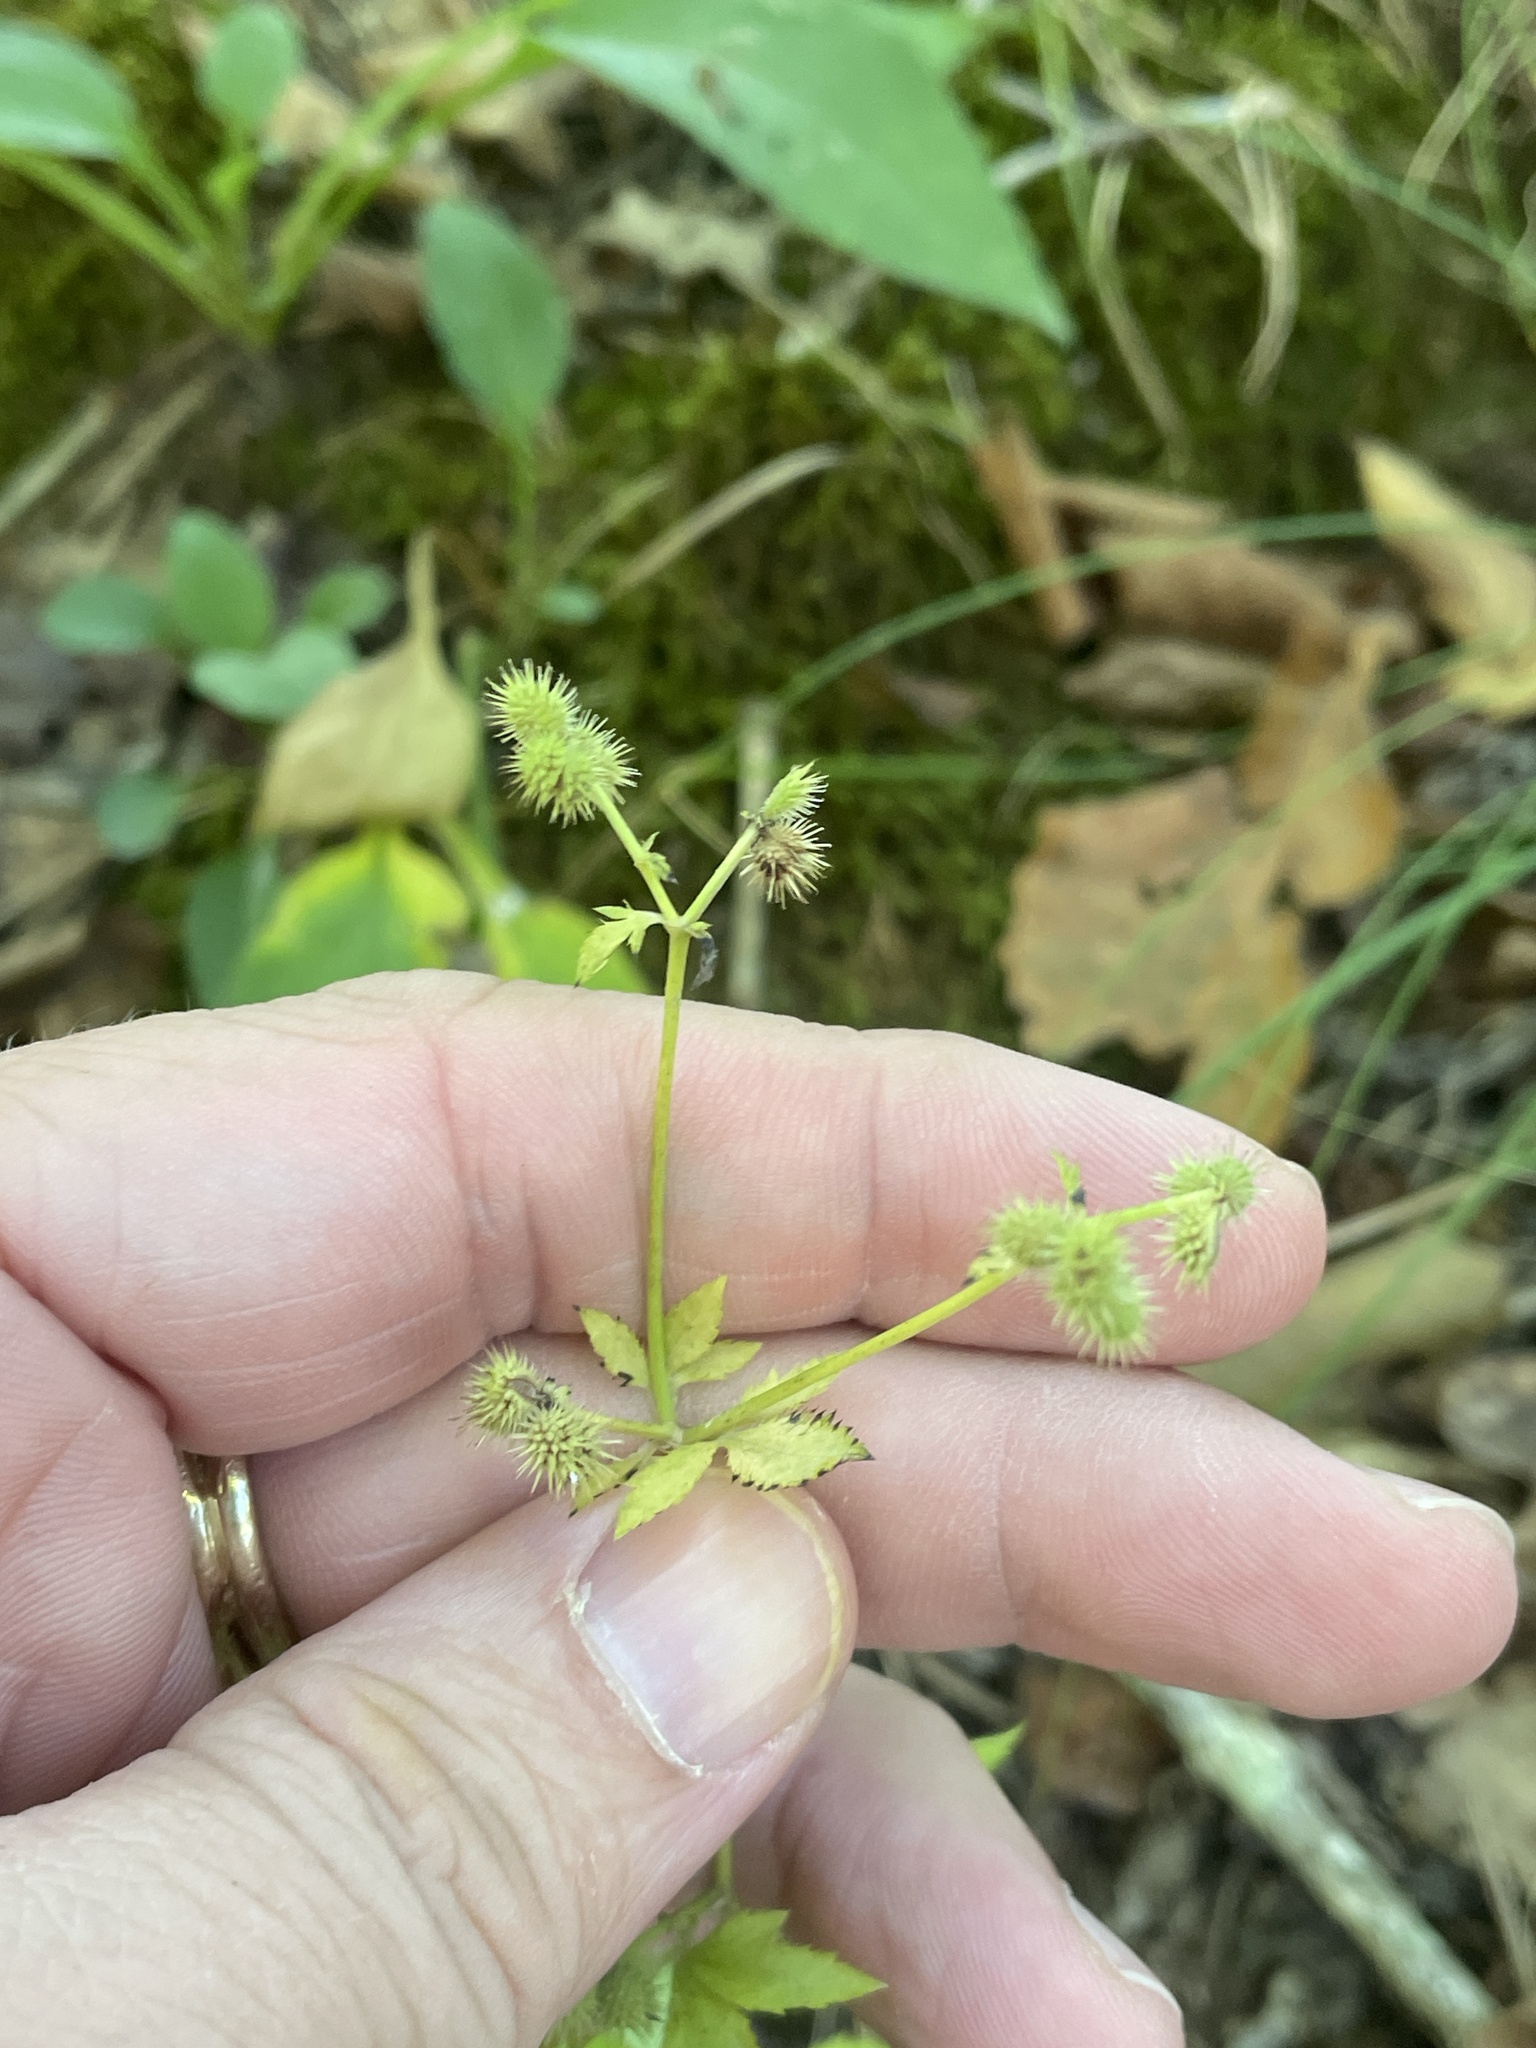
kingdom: Plantae
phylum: Tracheophyta
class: Magnoliopsida
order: Apiales
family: Apiaceae
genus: Sanicula
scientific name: Sanicula canadensis
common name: Canada sanicle
